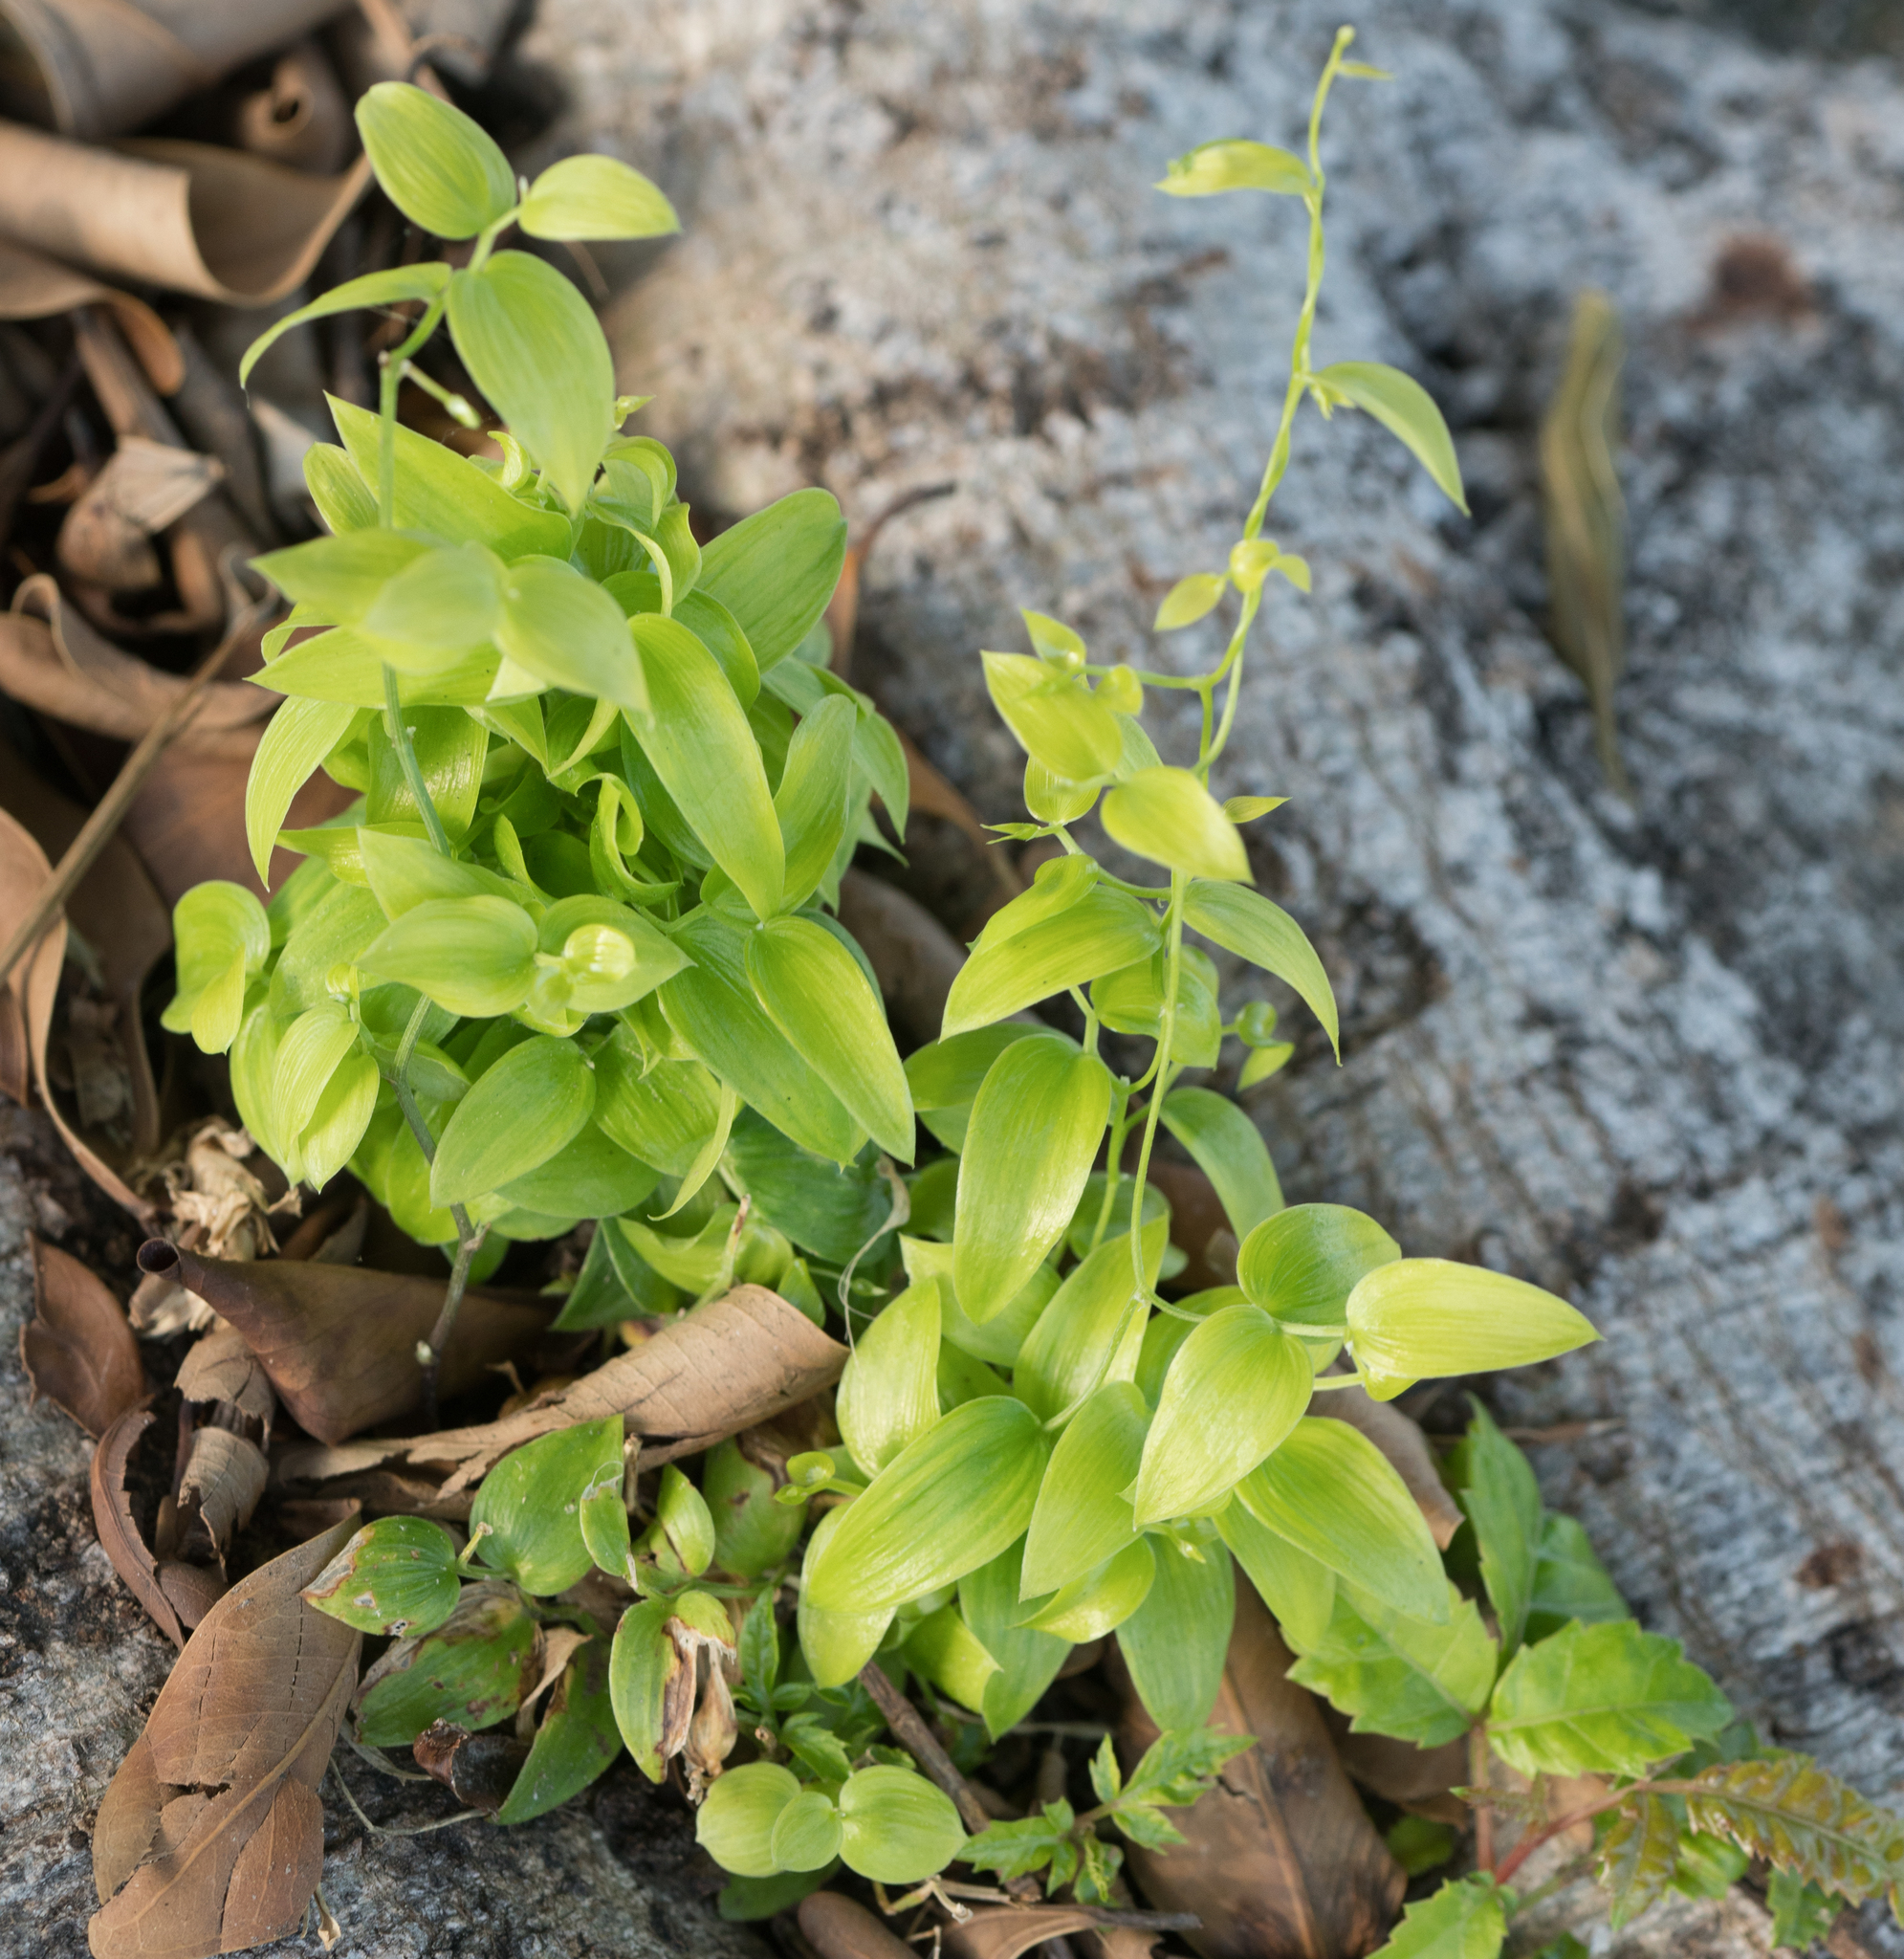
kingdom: Plantae
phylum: Tracheophyta
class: Liliopsida
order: Asparagales
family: Asparagaceae
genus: Asparagus
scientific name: Asparagus asparagoides
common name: African asparagus fern
